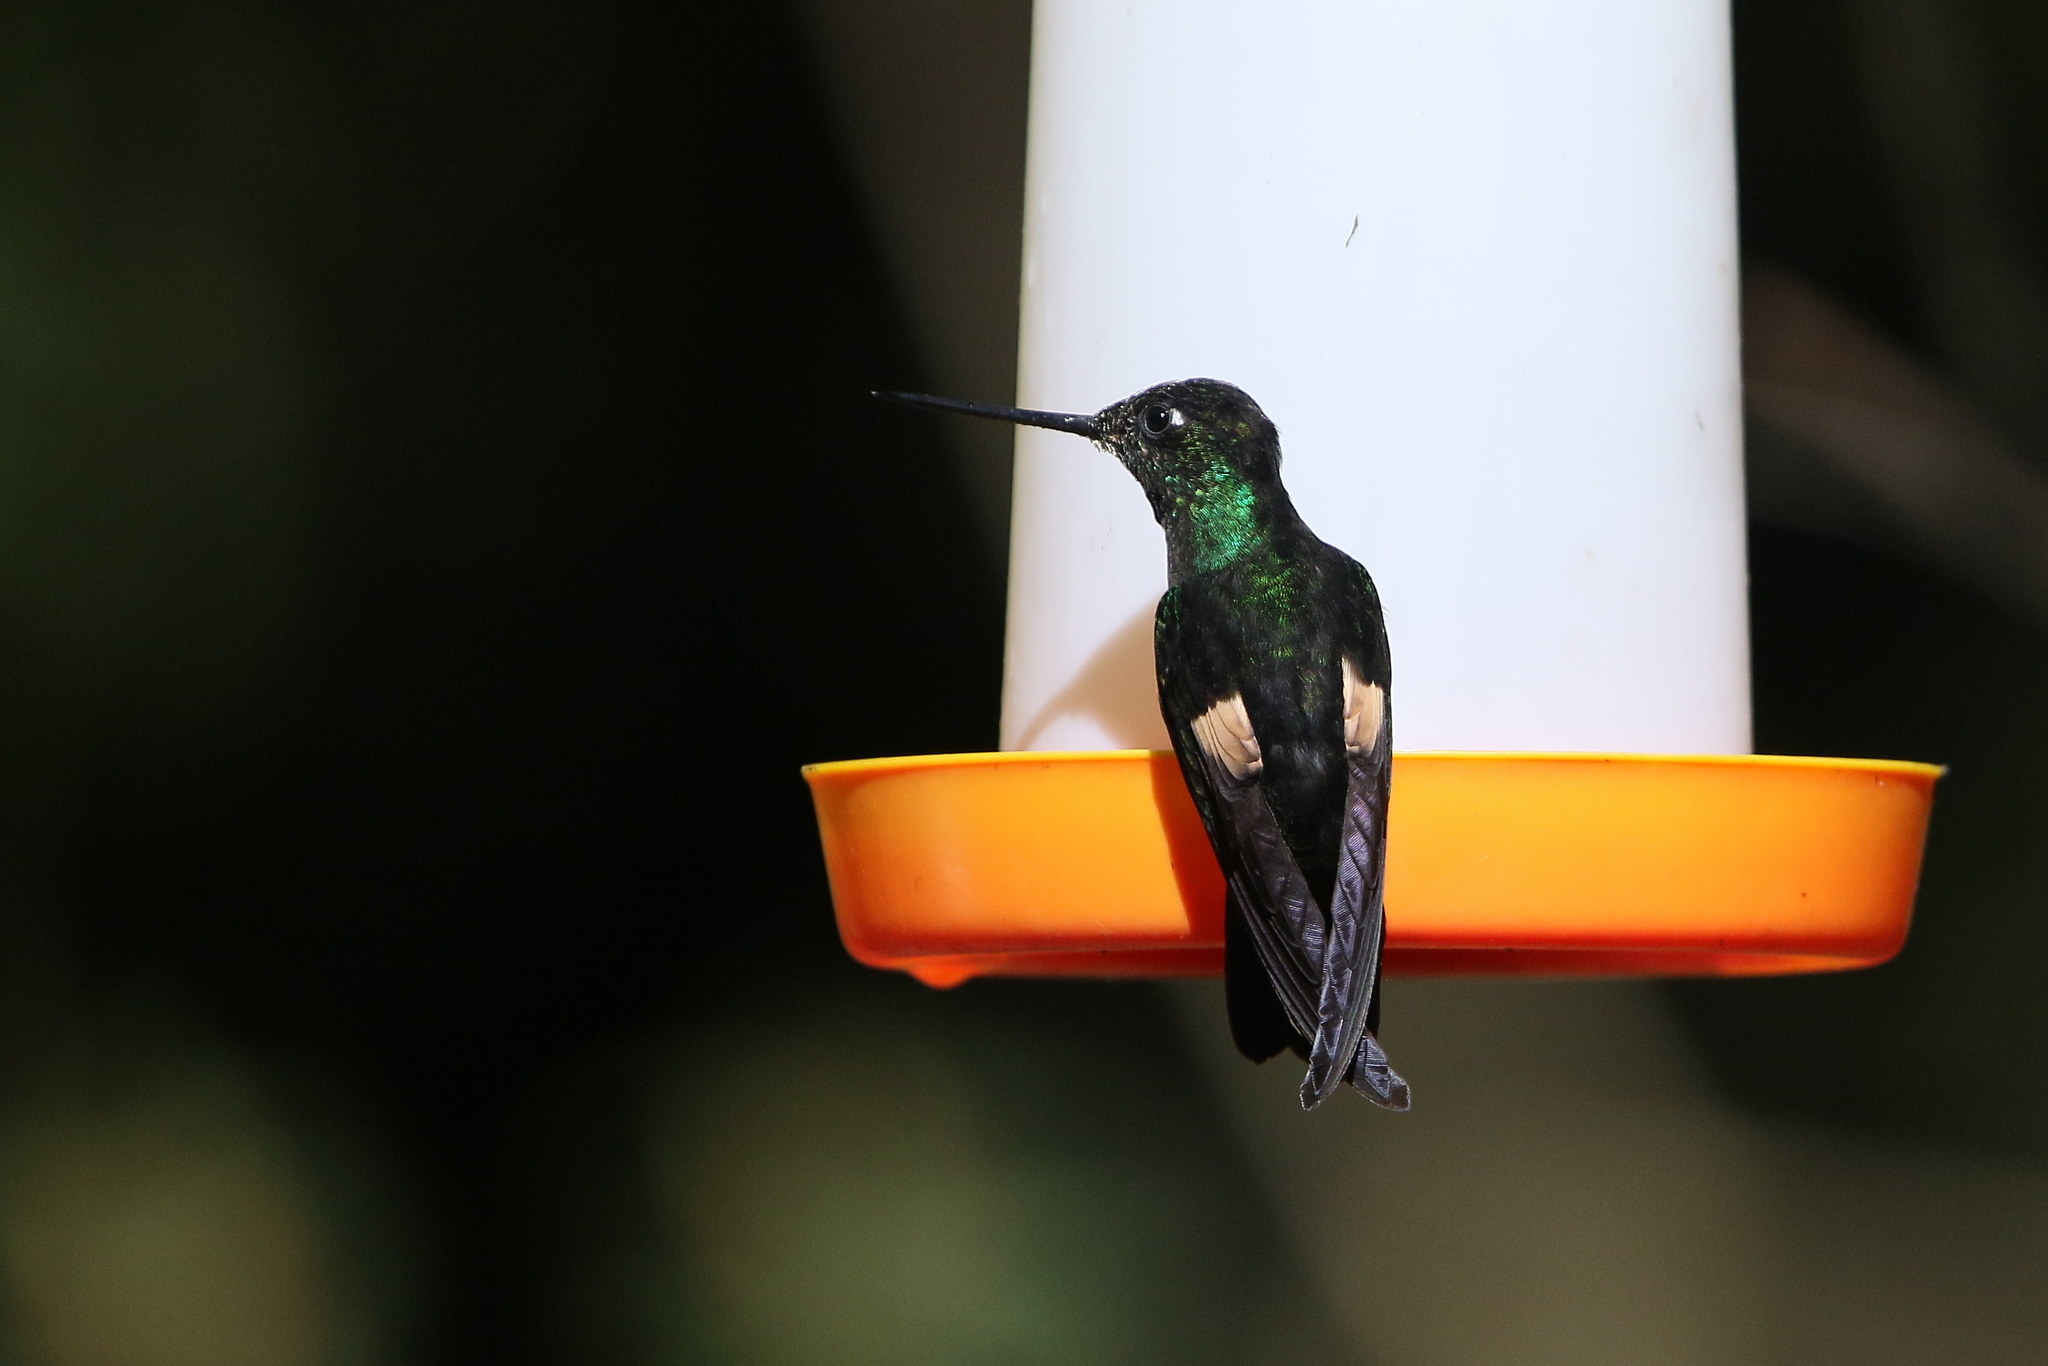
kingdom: Animalia
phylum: Chordata
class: Aves
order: Apodiformes
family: Trochilidae
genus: Coeligena
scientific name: Coeligena lutetiae
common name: Buff-winged starfrontlet
